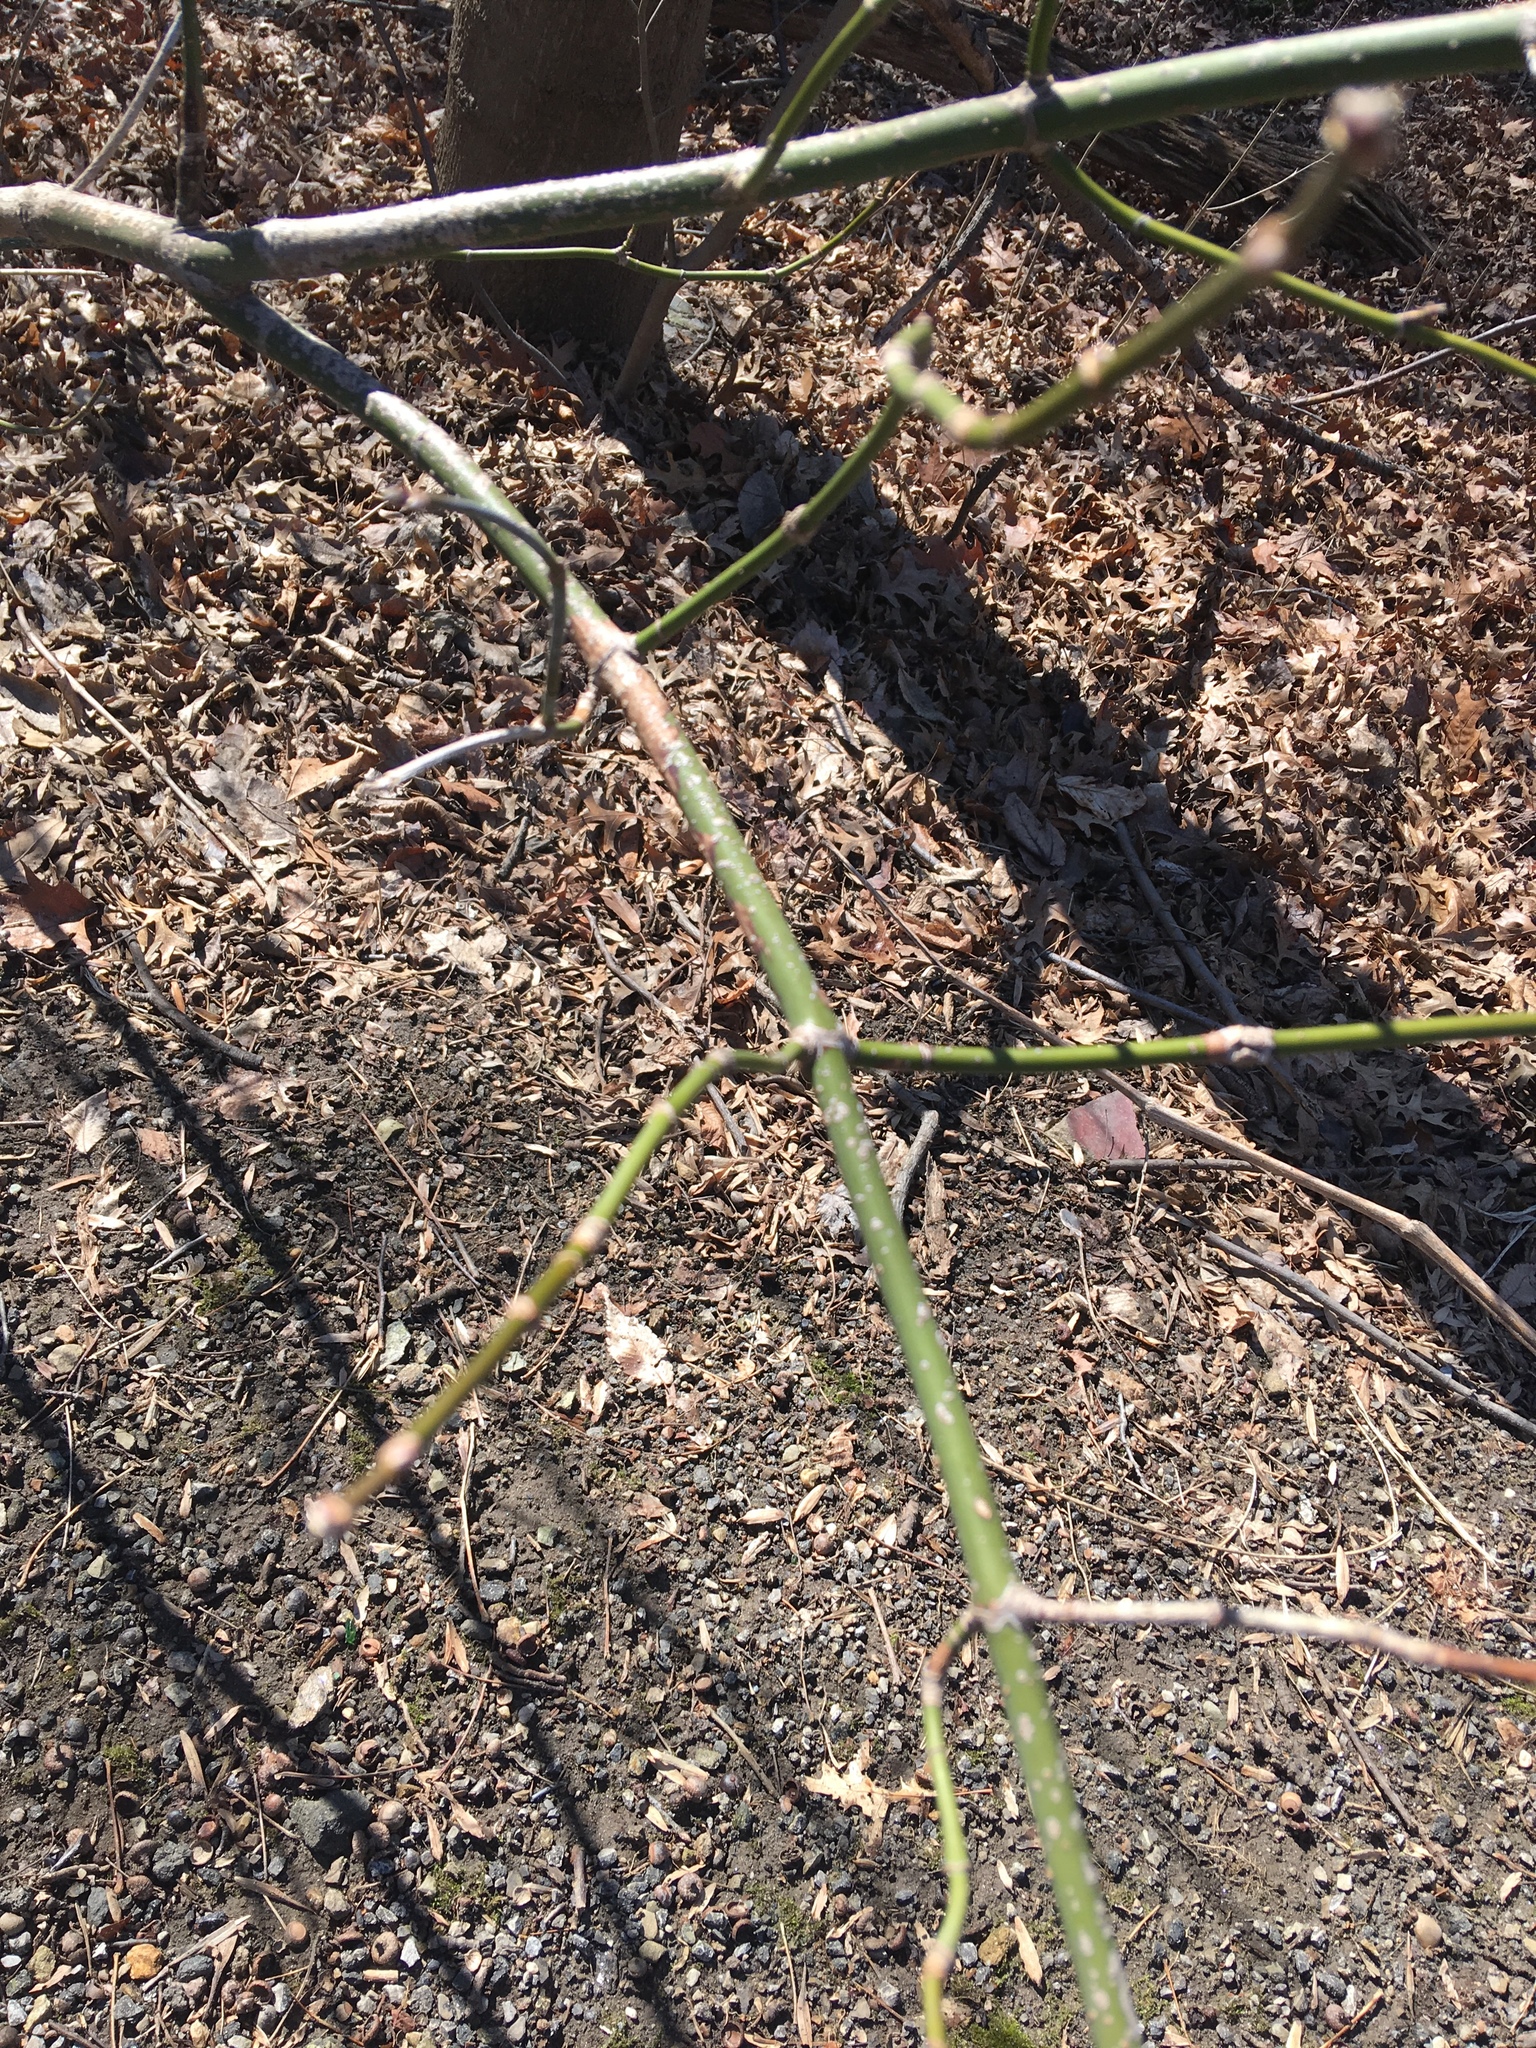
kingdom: Plantae
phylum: Tracheophyta
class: Magnoliopsida
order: Sapindales
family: Sapindaceae
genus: Acer
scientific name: Acer negundo
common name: Ashleaf maple
